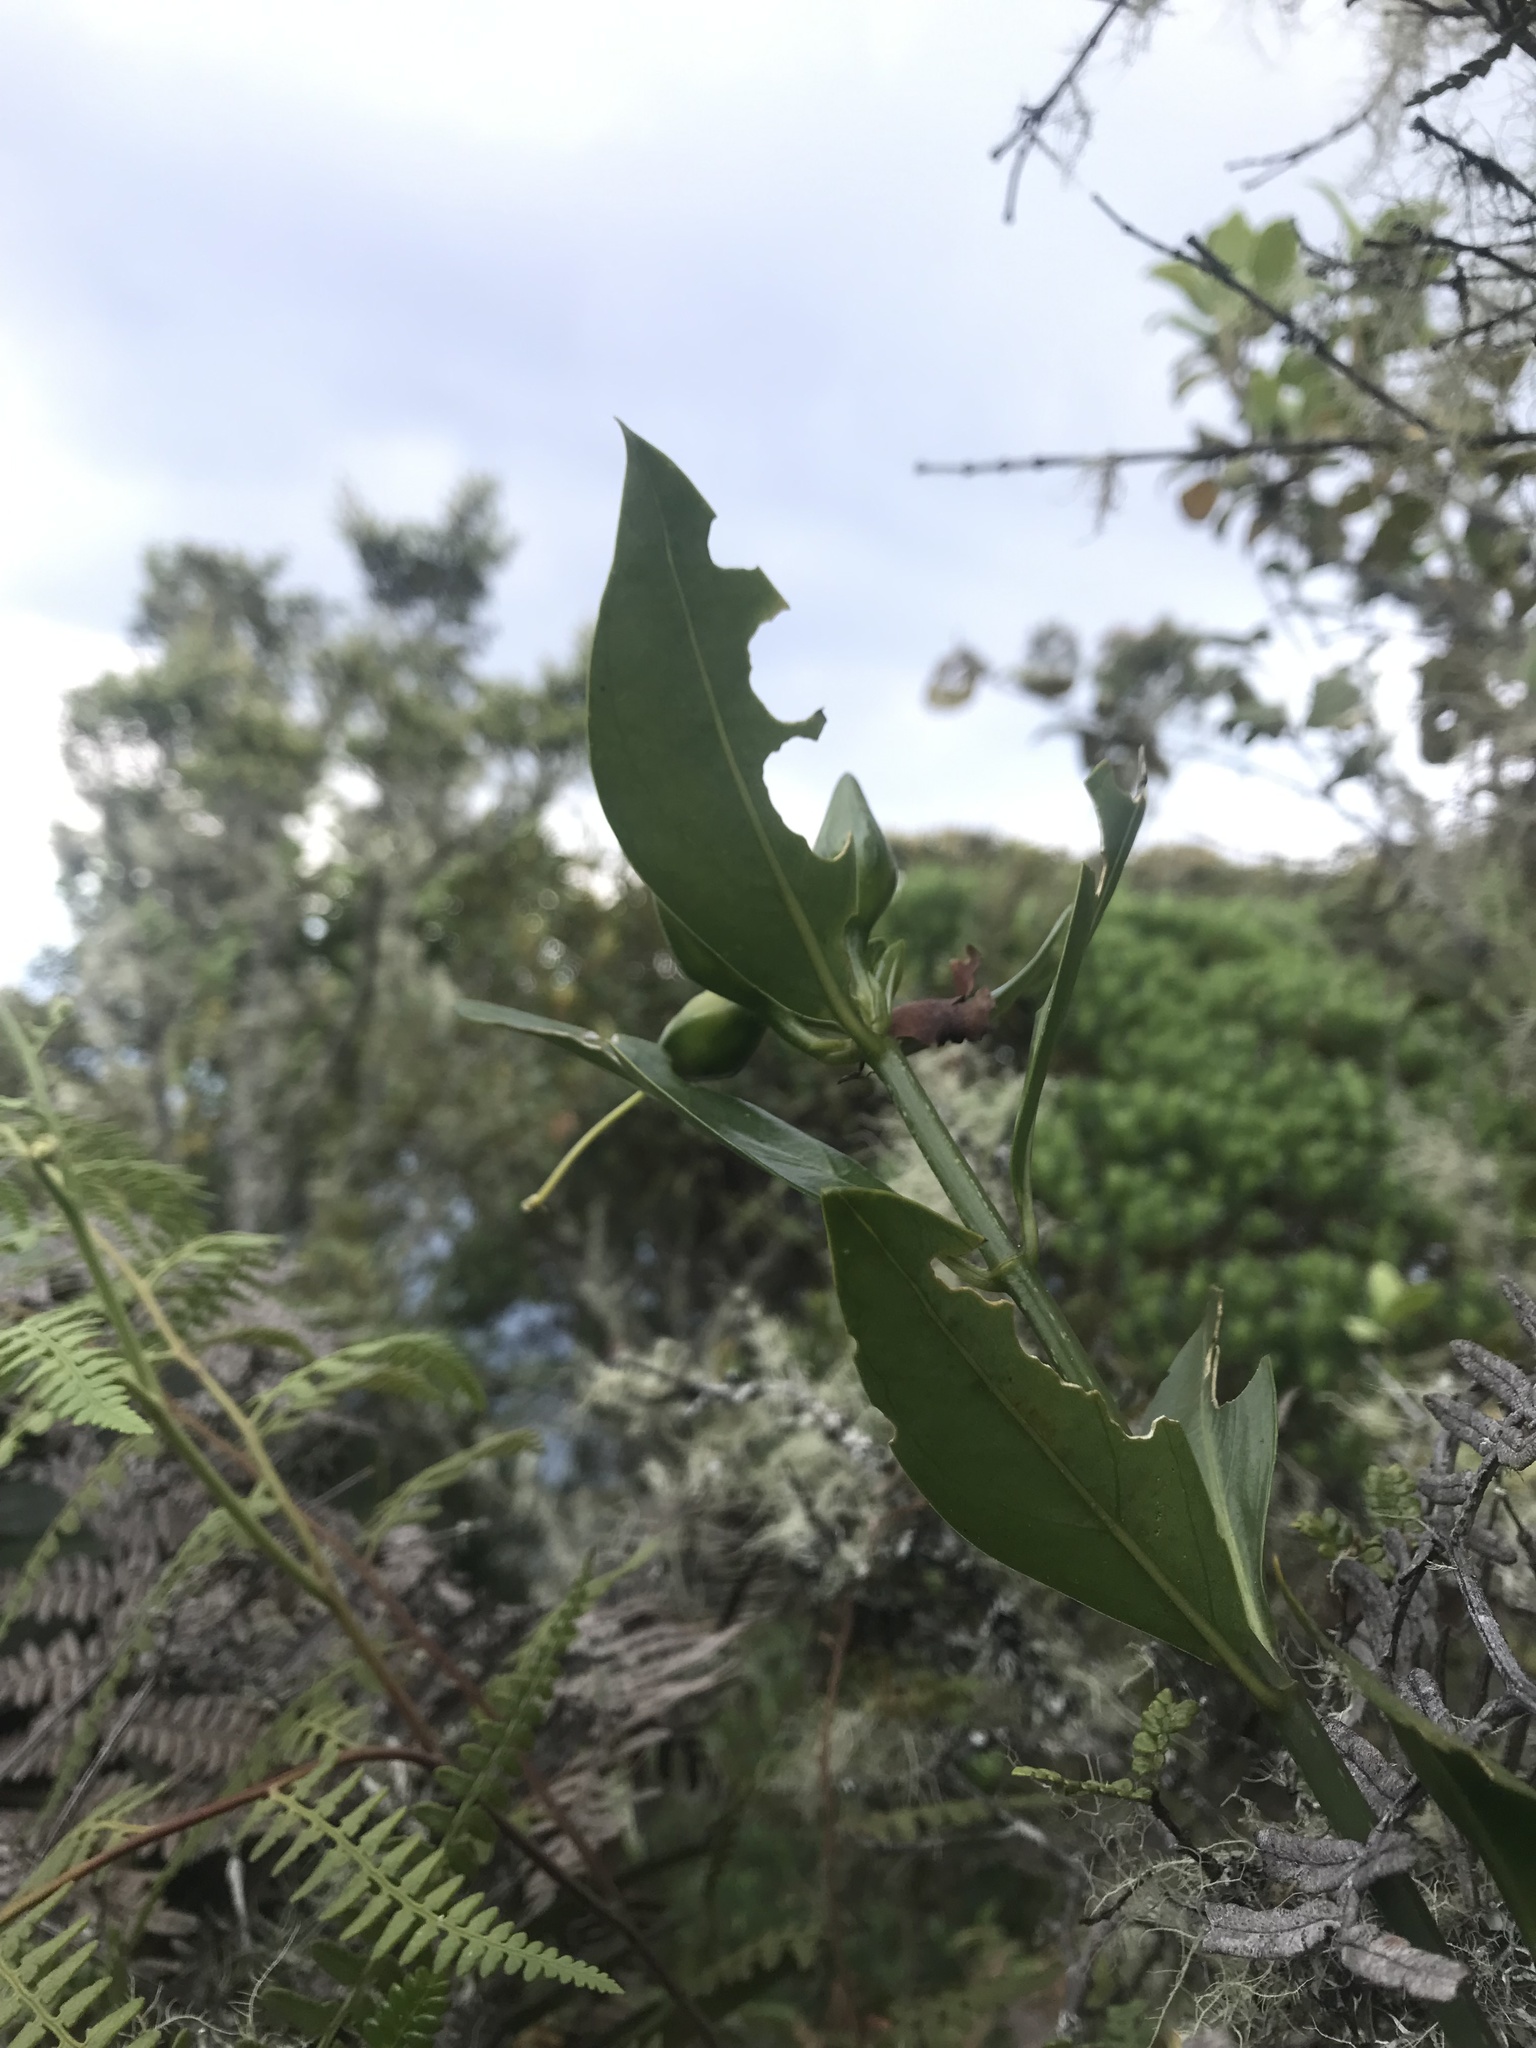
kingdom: Plantae
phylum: Tracheophyta
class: Magnoliopsida
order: Gentianales
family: Gentianaceae
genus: Symbolanthus
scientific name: Symbolanthus anomalus
